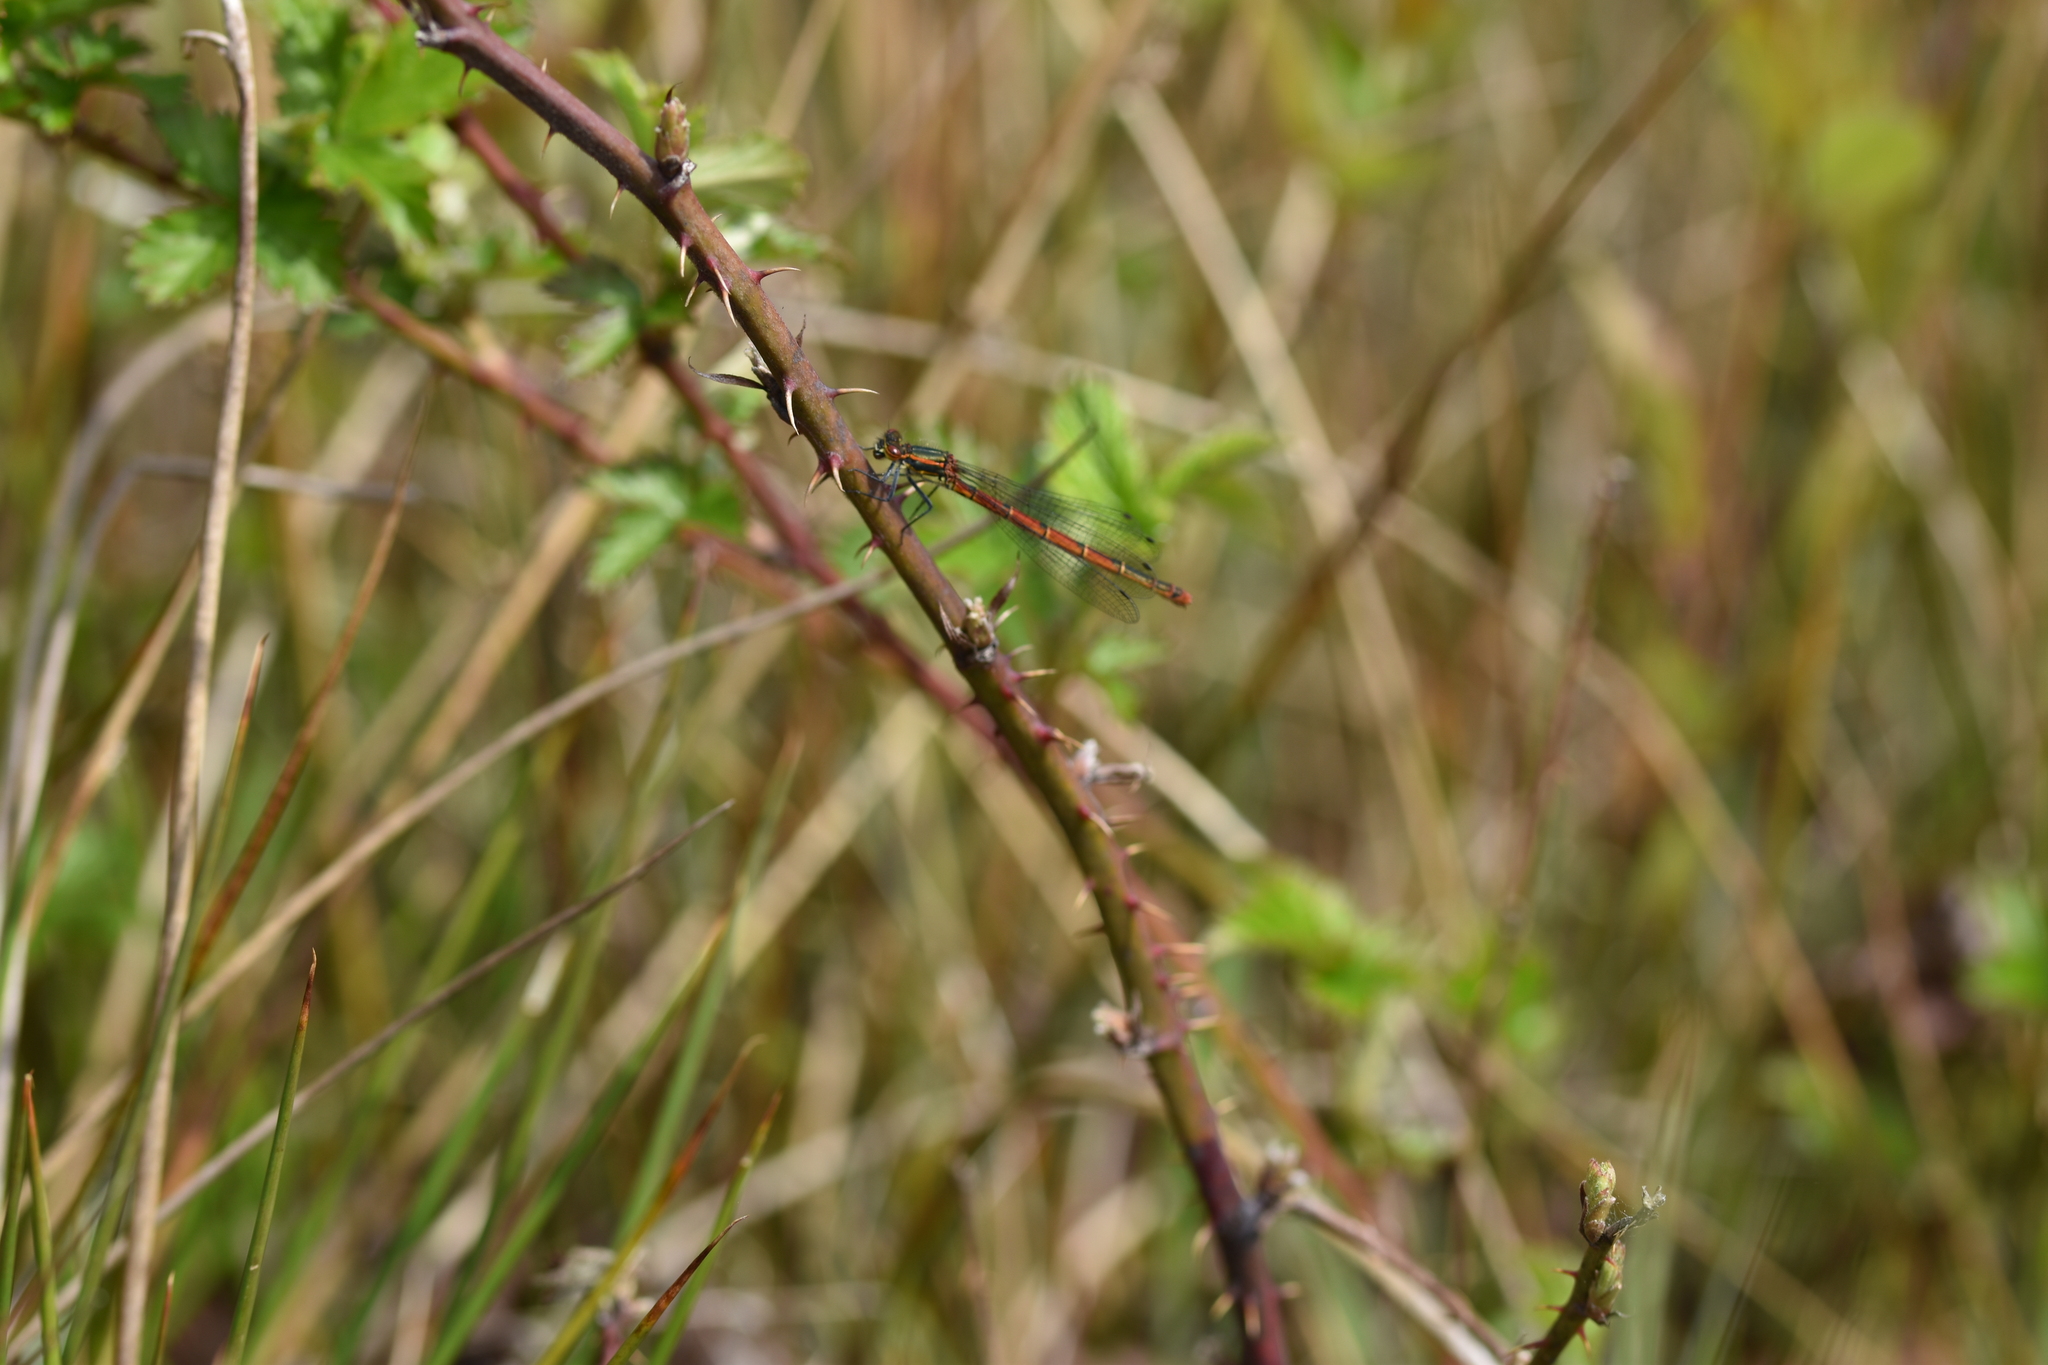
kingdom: Animalia
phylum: Arthropoda
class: Insecta
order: Odonata
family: Coenagrionidae
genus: Pyrrhosoma
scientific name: Pyrrhosoma nymphula
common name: Large red damsel
